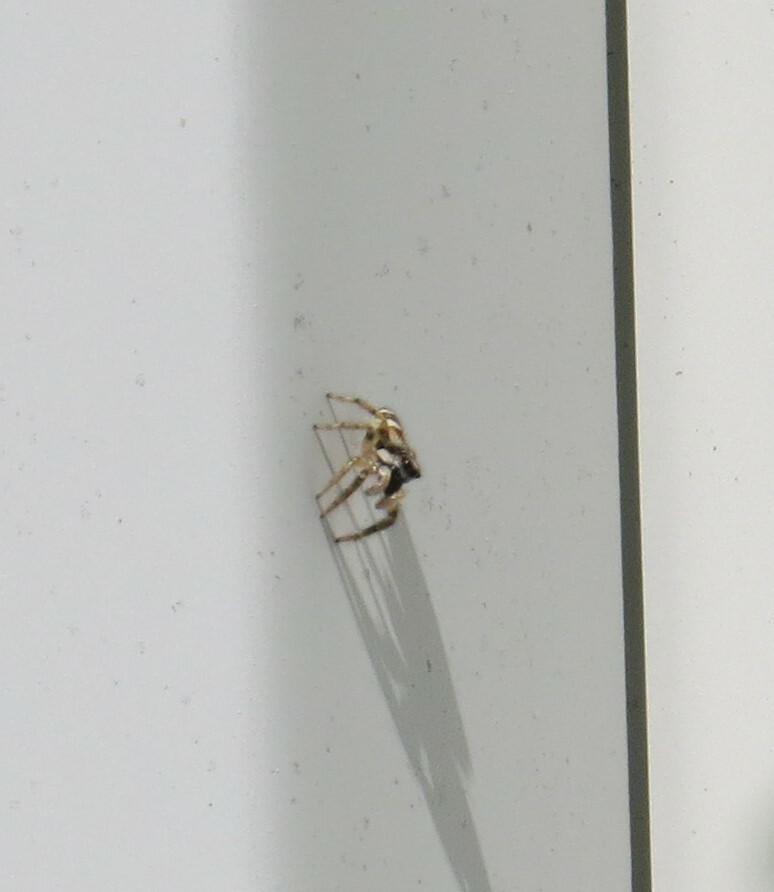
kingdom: Animalia
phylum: Arthropoda
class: Arachnida
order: Araneae
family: Salticidae
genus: Salticus
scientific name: Salticus scenicus
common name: Zebra jumper
